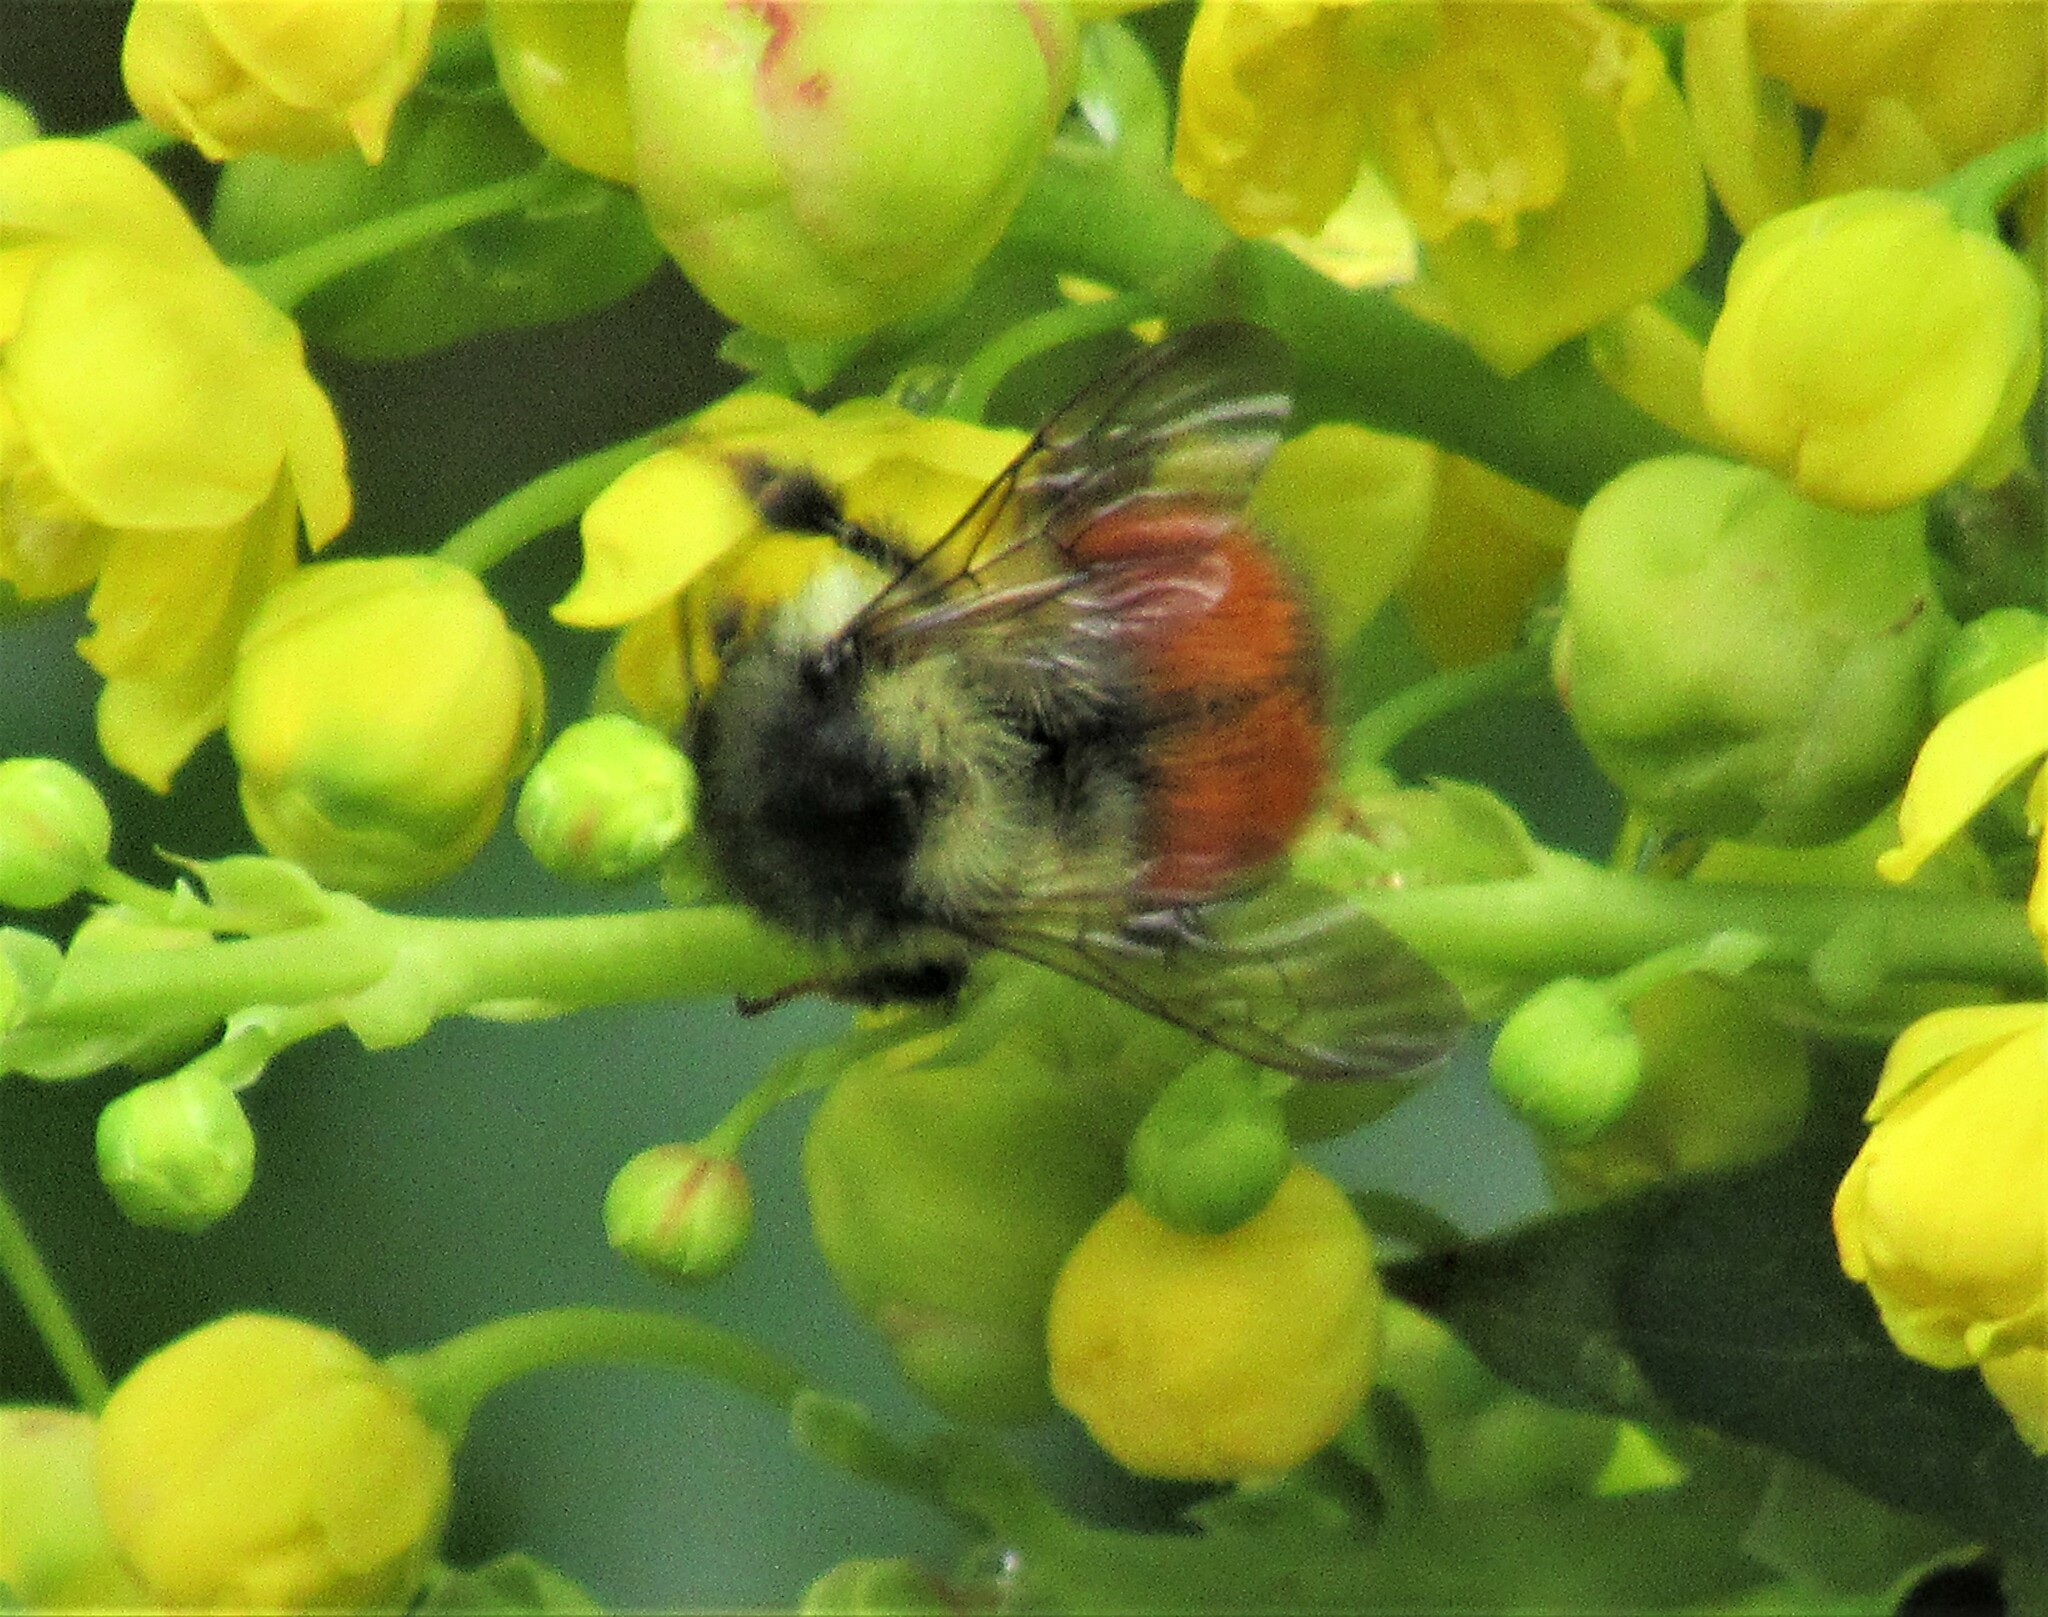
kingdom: Animalia
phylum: Arthropoda
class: Insecta
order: Hymenoptera
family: Apidae
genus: Bombus
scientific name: Bombus melanopygus
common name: Black tail bumble bee
